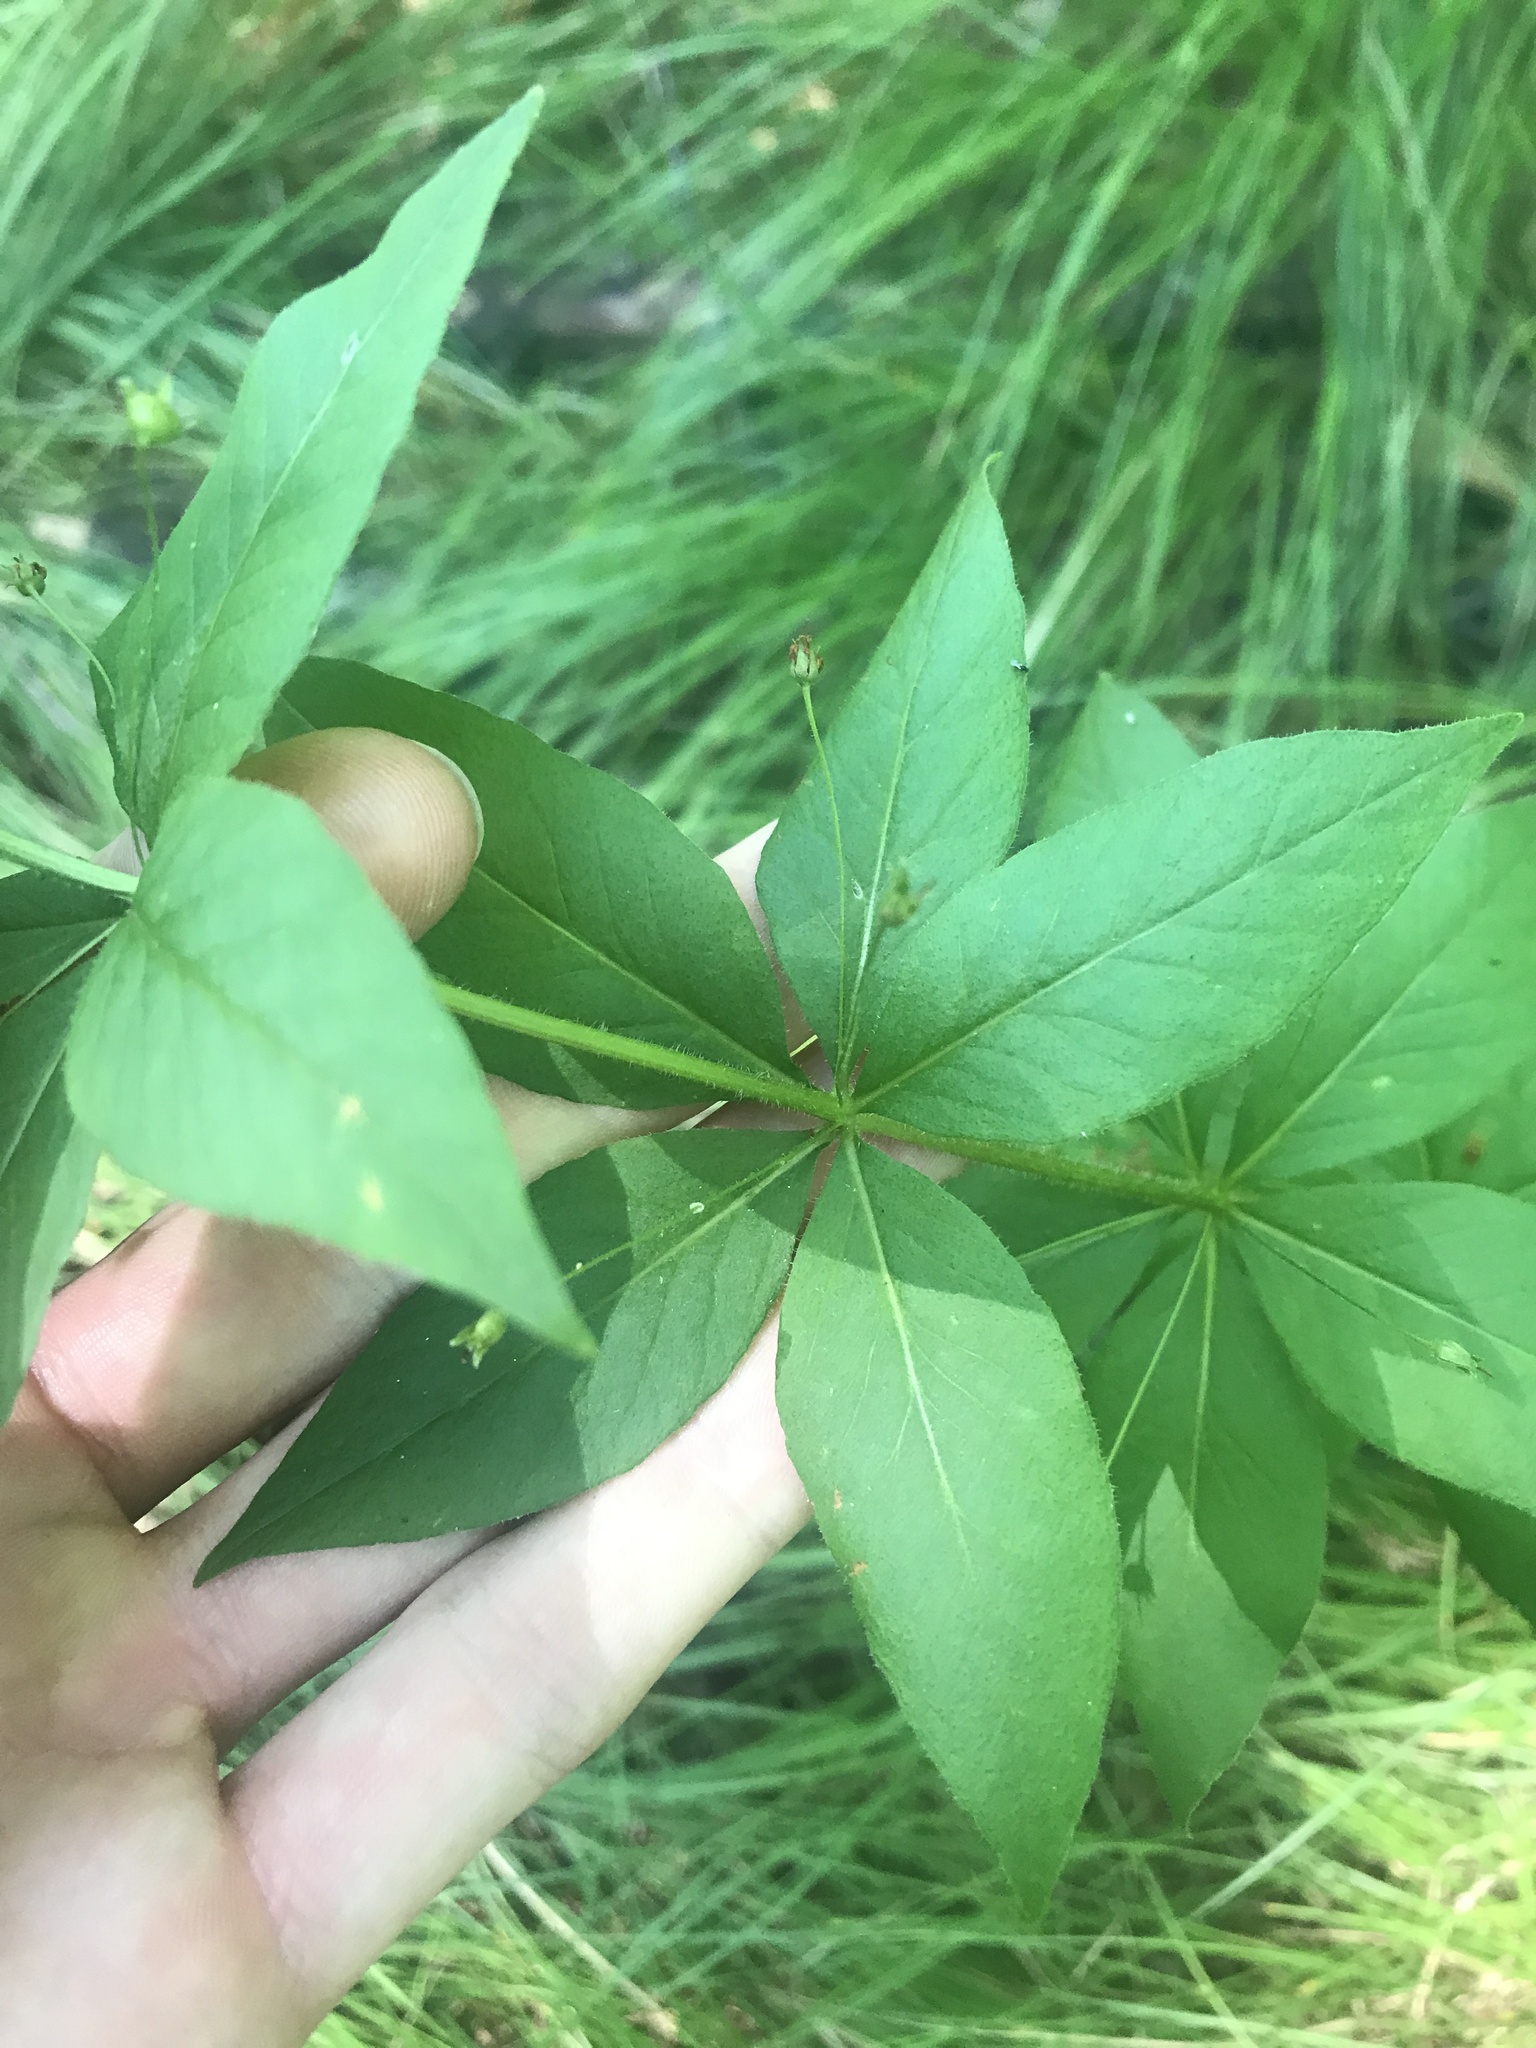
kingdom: Plantae
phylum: Tracheophyta
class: Magnoliopsida
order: Ericales
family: Primulaceae
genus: Lysimachia
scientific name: Lysimachia quadrifolia
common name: Whorled loosestrife
